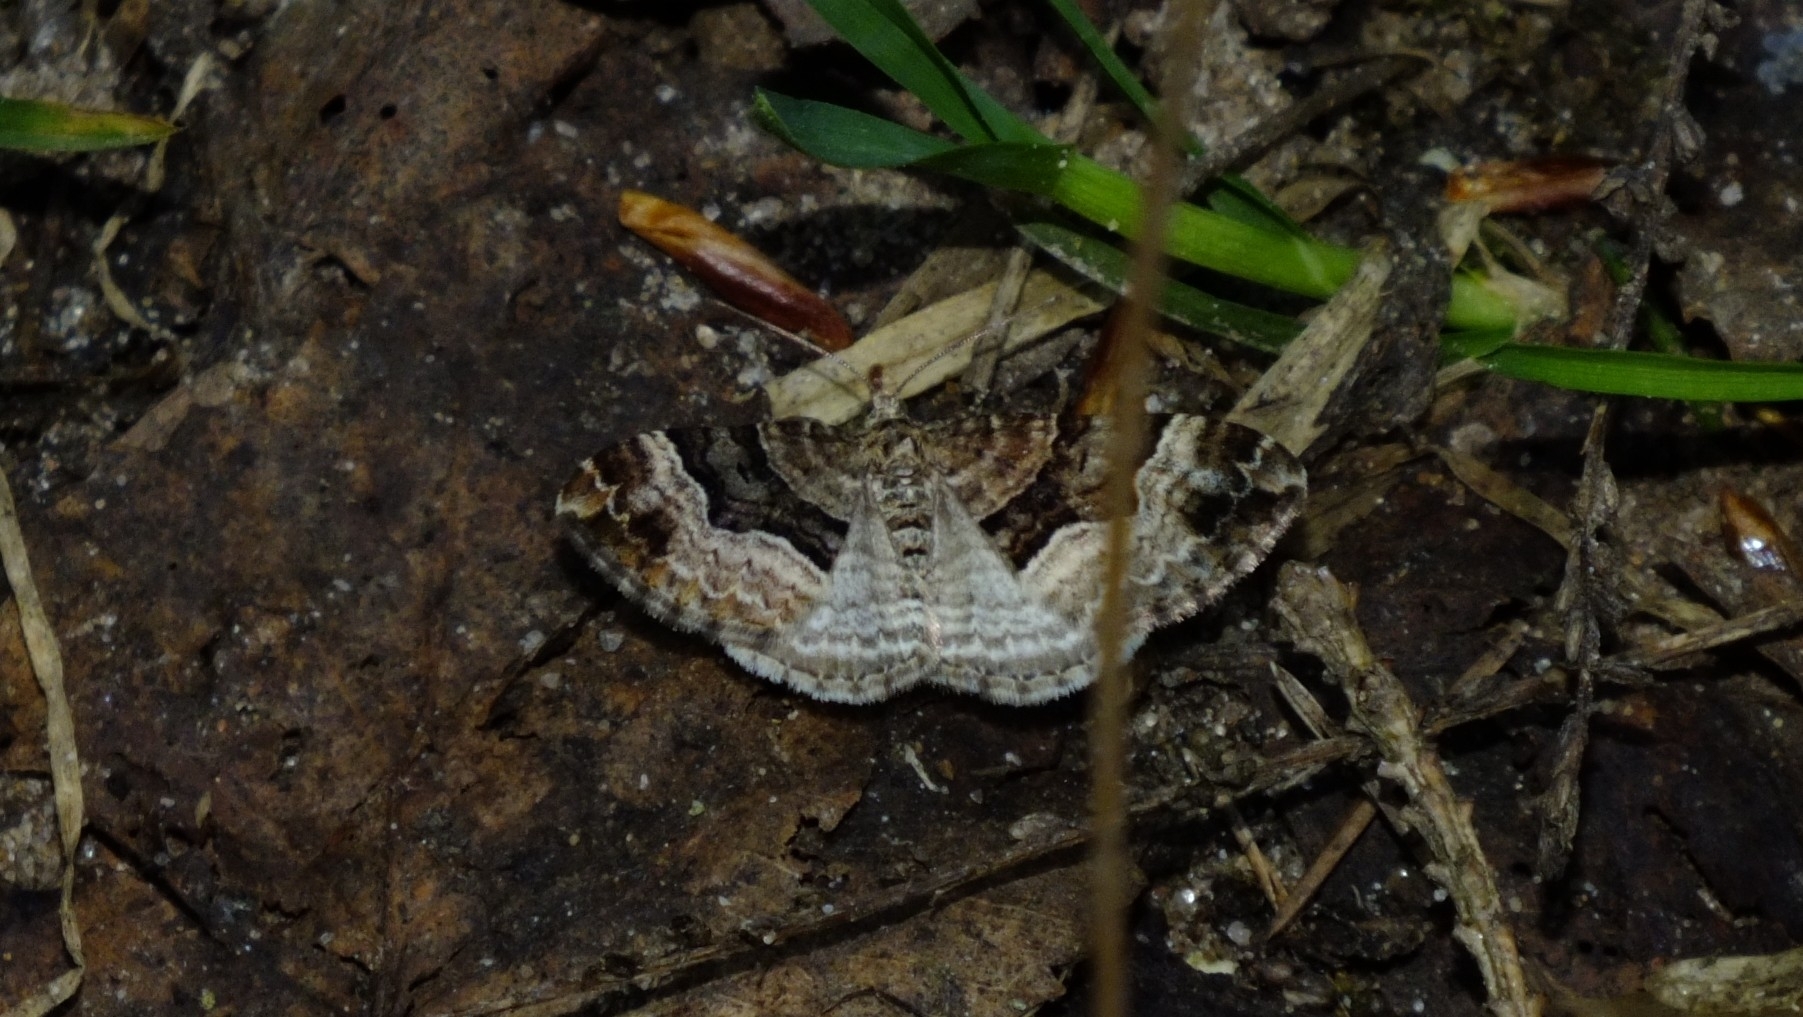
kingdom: Animalia
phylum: Arthropoda
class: Insecta
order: Lepidoptera
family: Geometridae
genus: Xanthorhoe
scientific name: Xanthorhoe biriviata
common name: Balsam carpet
